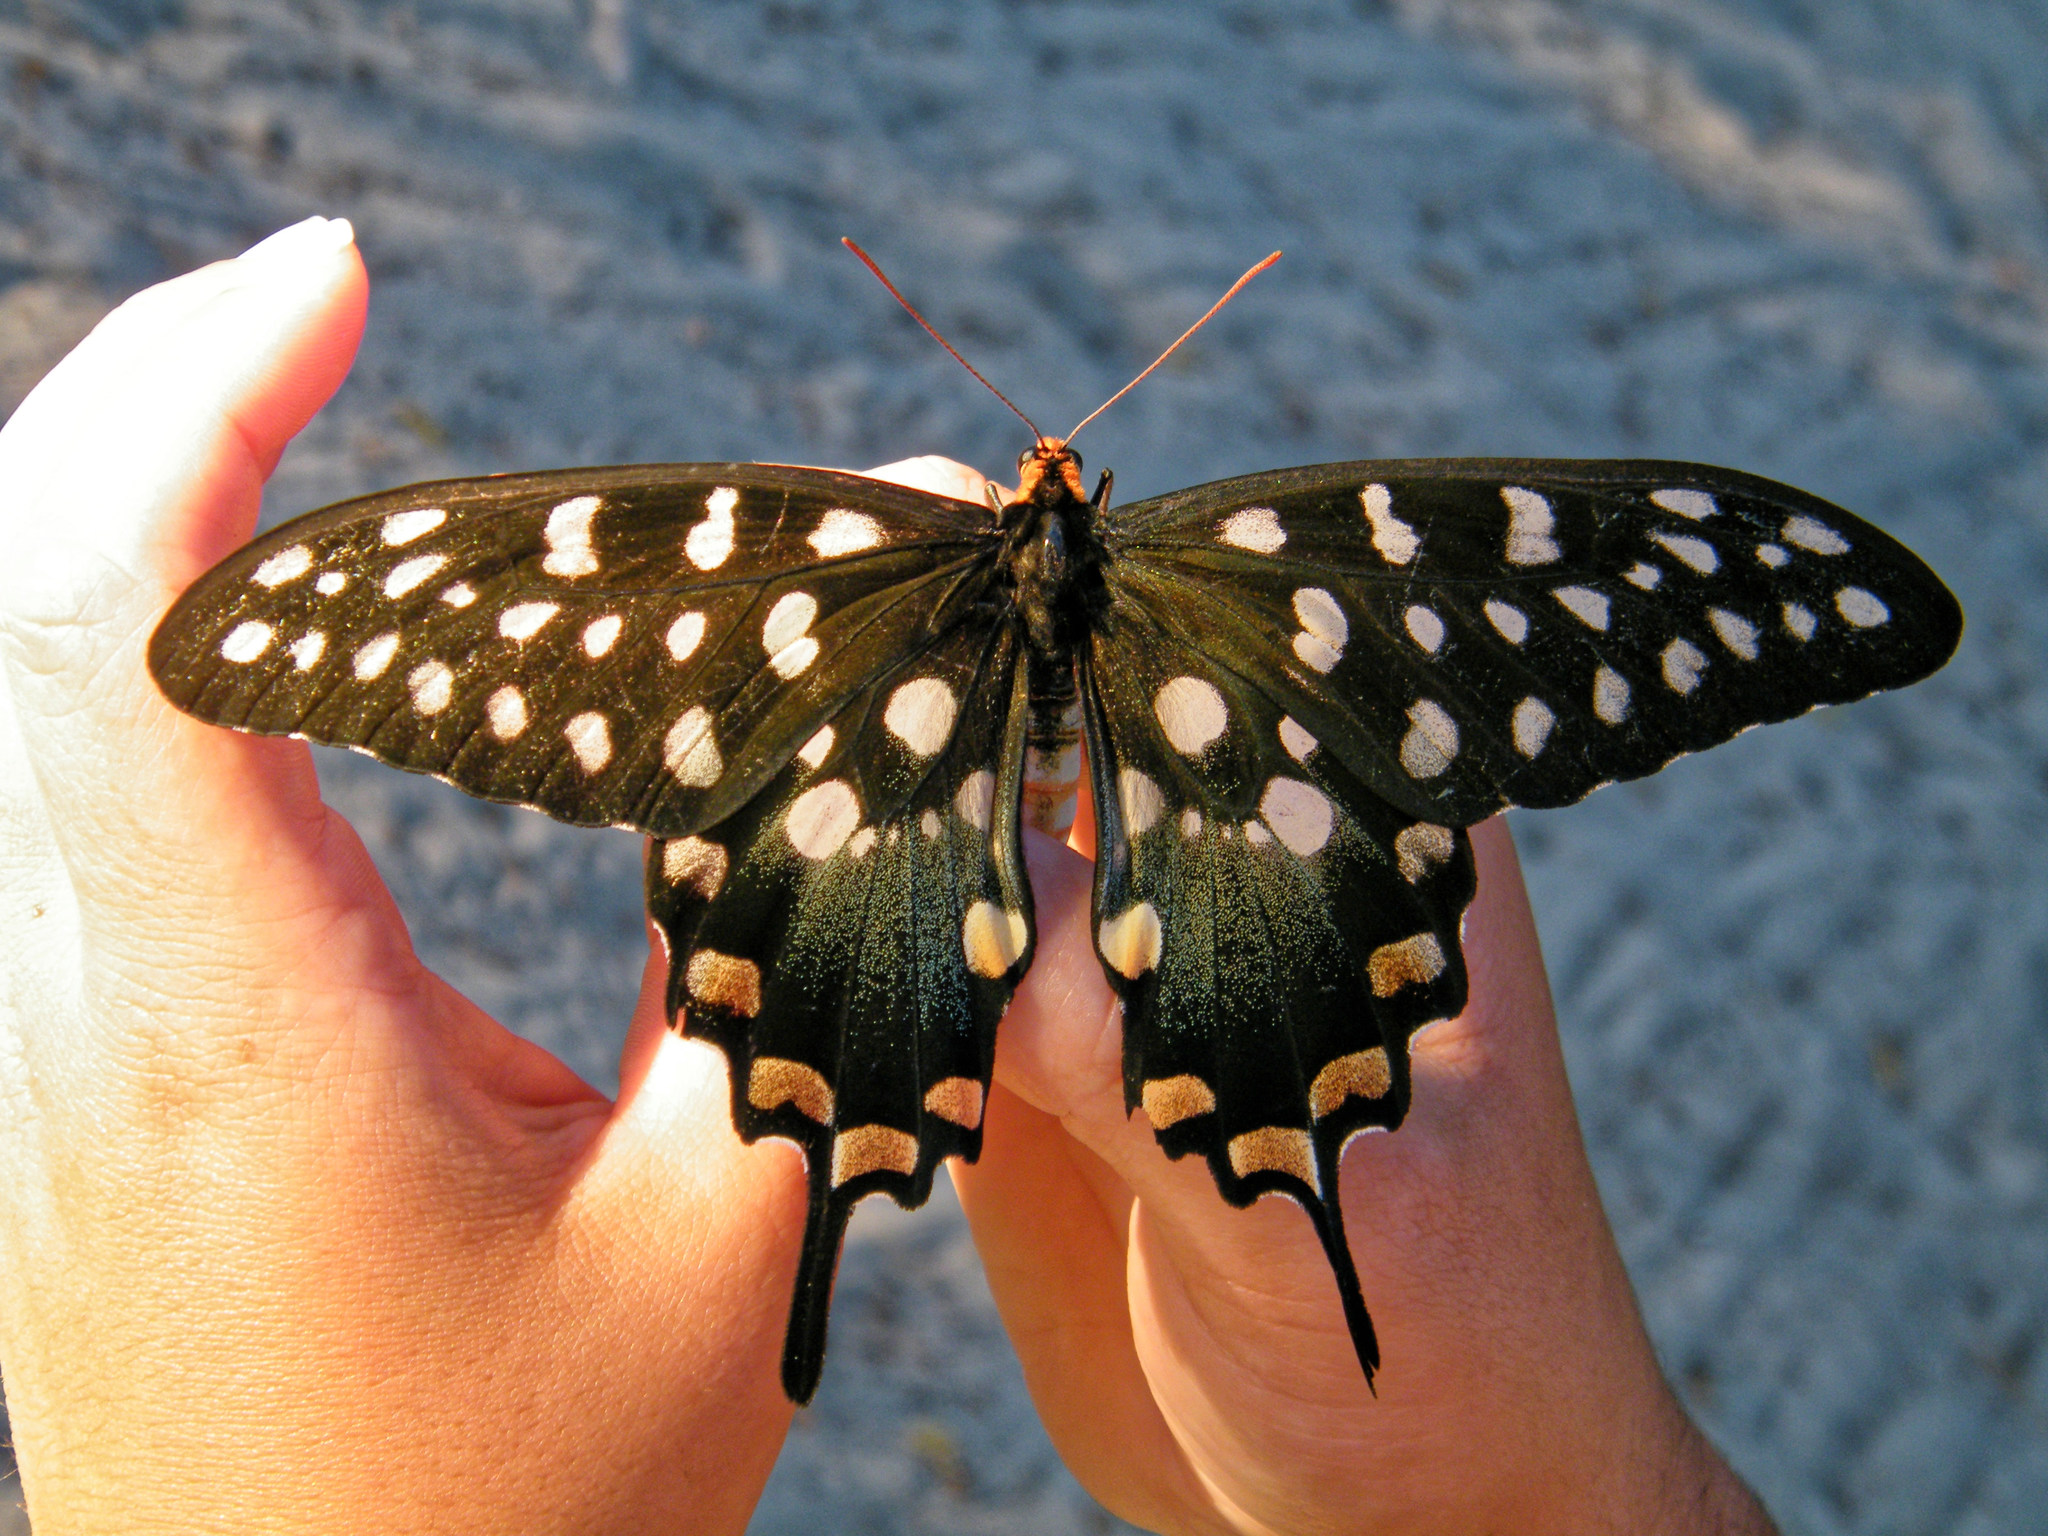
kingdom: Animalia
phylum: Arthropoda
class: Insecta
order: Lepidoptera
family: Papilionidae
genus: Pharmacophagus
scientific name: Pharmacophagus antenor
